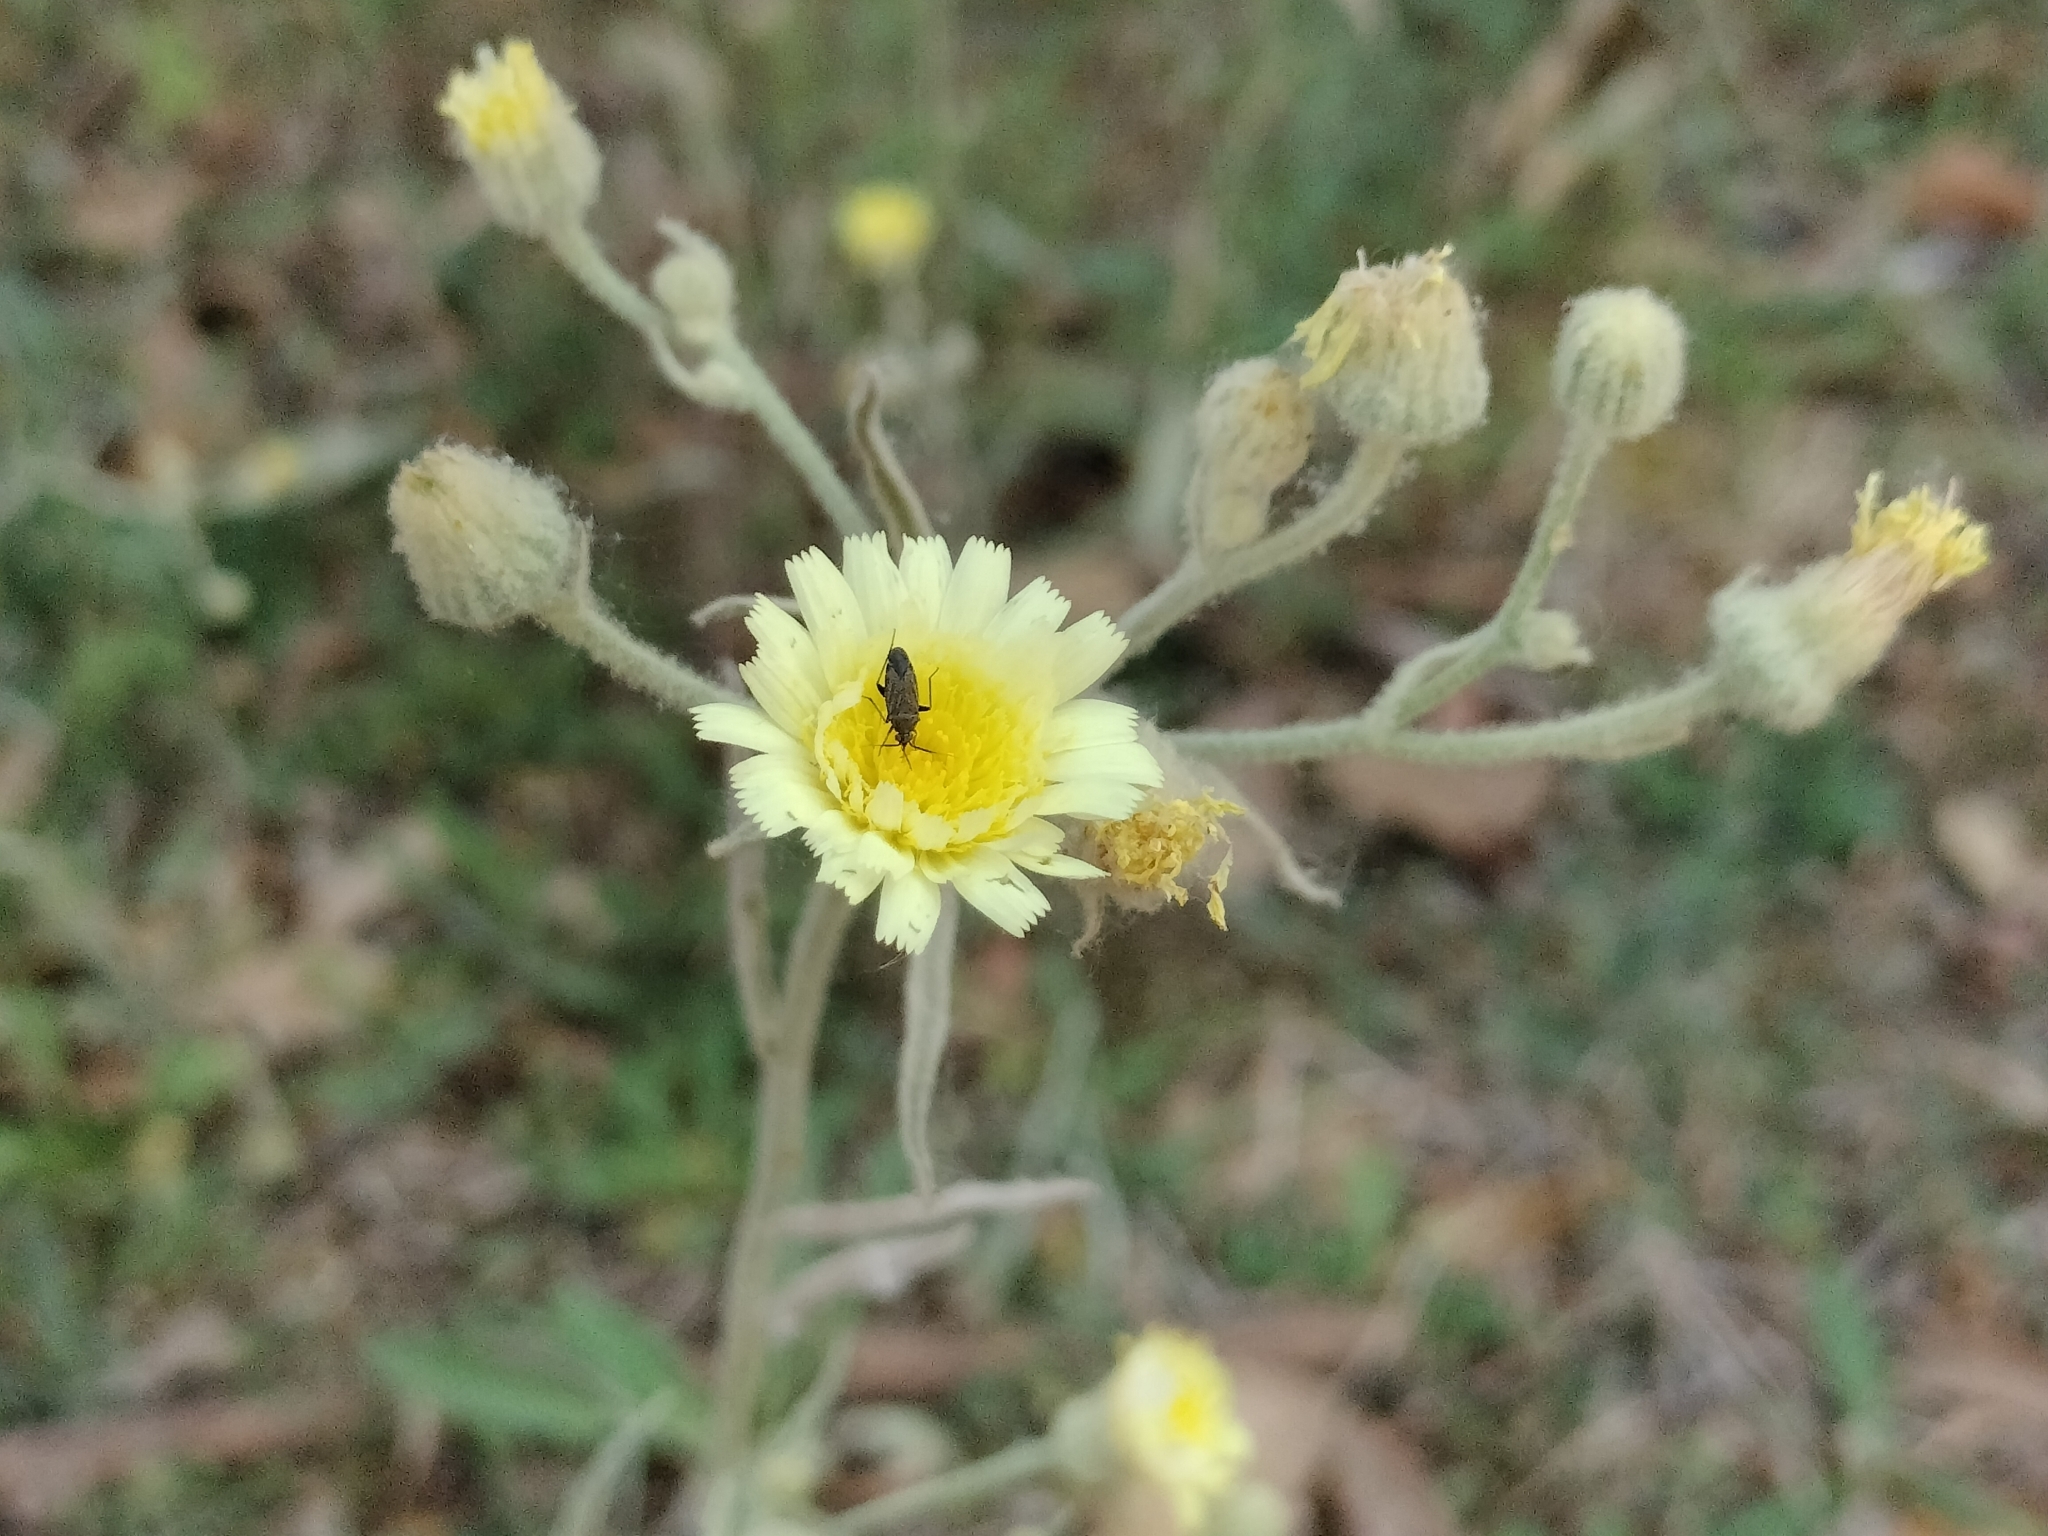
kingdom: Plantae
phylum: Tracheophyta
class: Magnoliopsida
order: Asterales
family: Asteraceae
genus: Andryala
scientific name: Andryala integrifolia
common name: Common andryala
